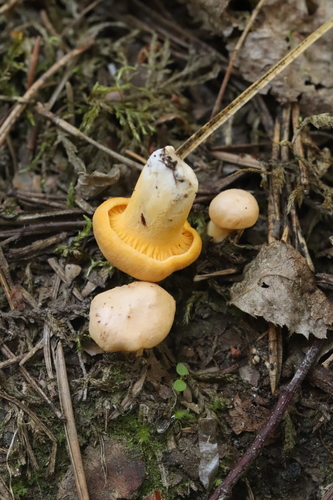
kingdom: Fungi
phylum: Basidiomycota
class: Agaricomycetes
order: Cantharellales
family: Hydnaceae
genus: Cantharellus
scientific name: Cantharellus cibarius
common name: Chanterelle
